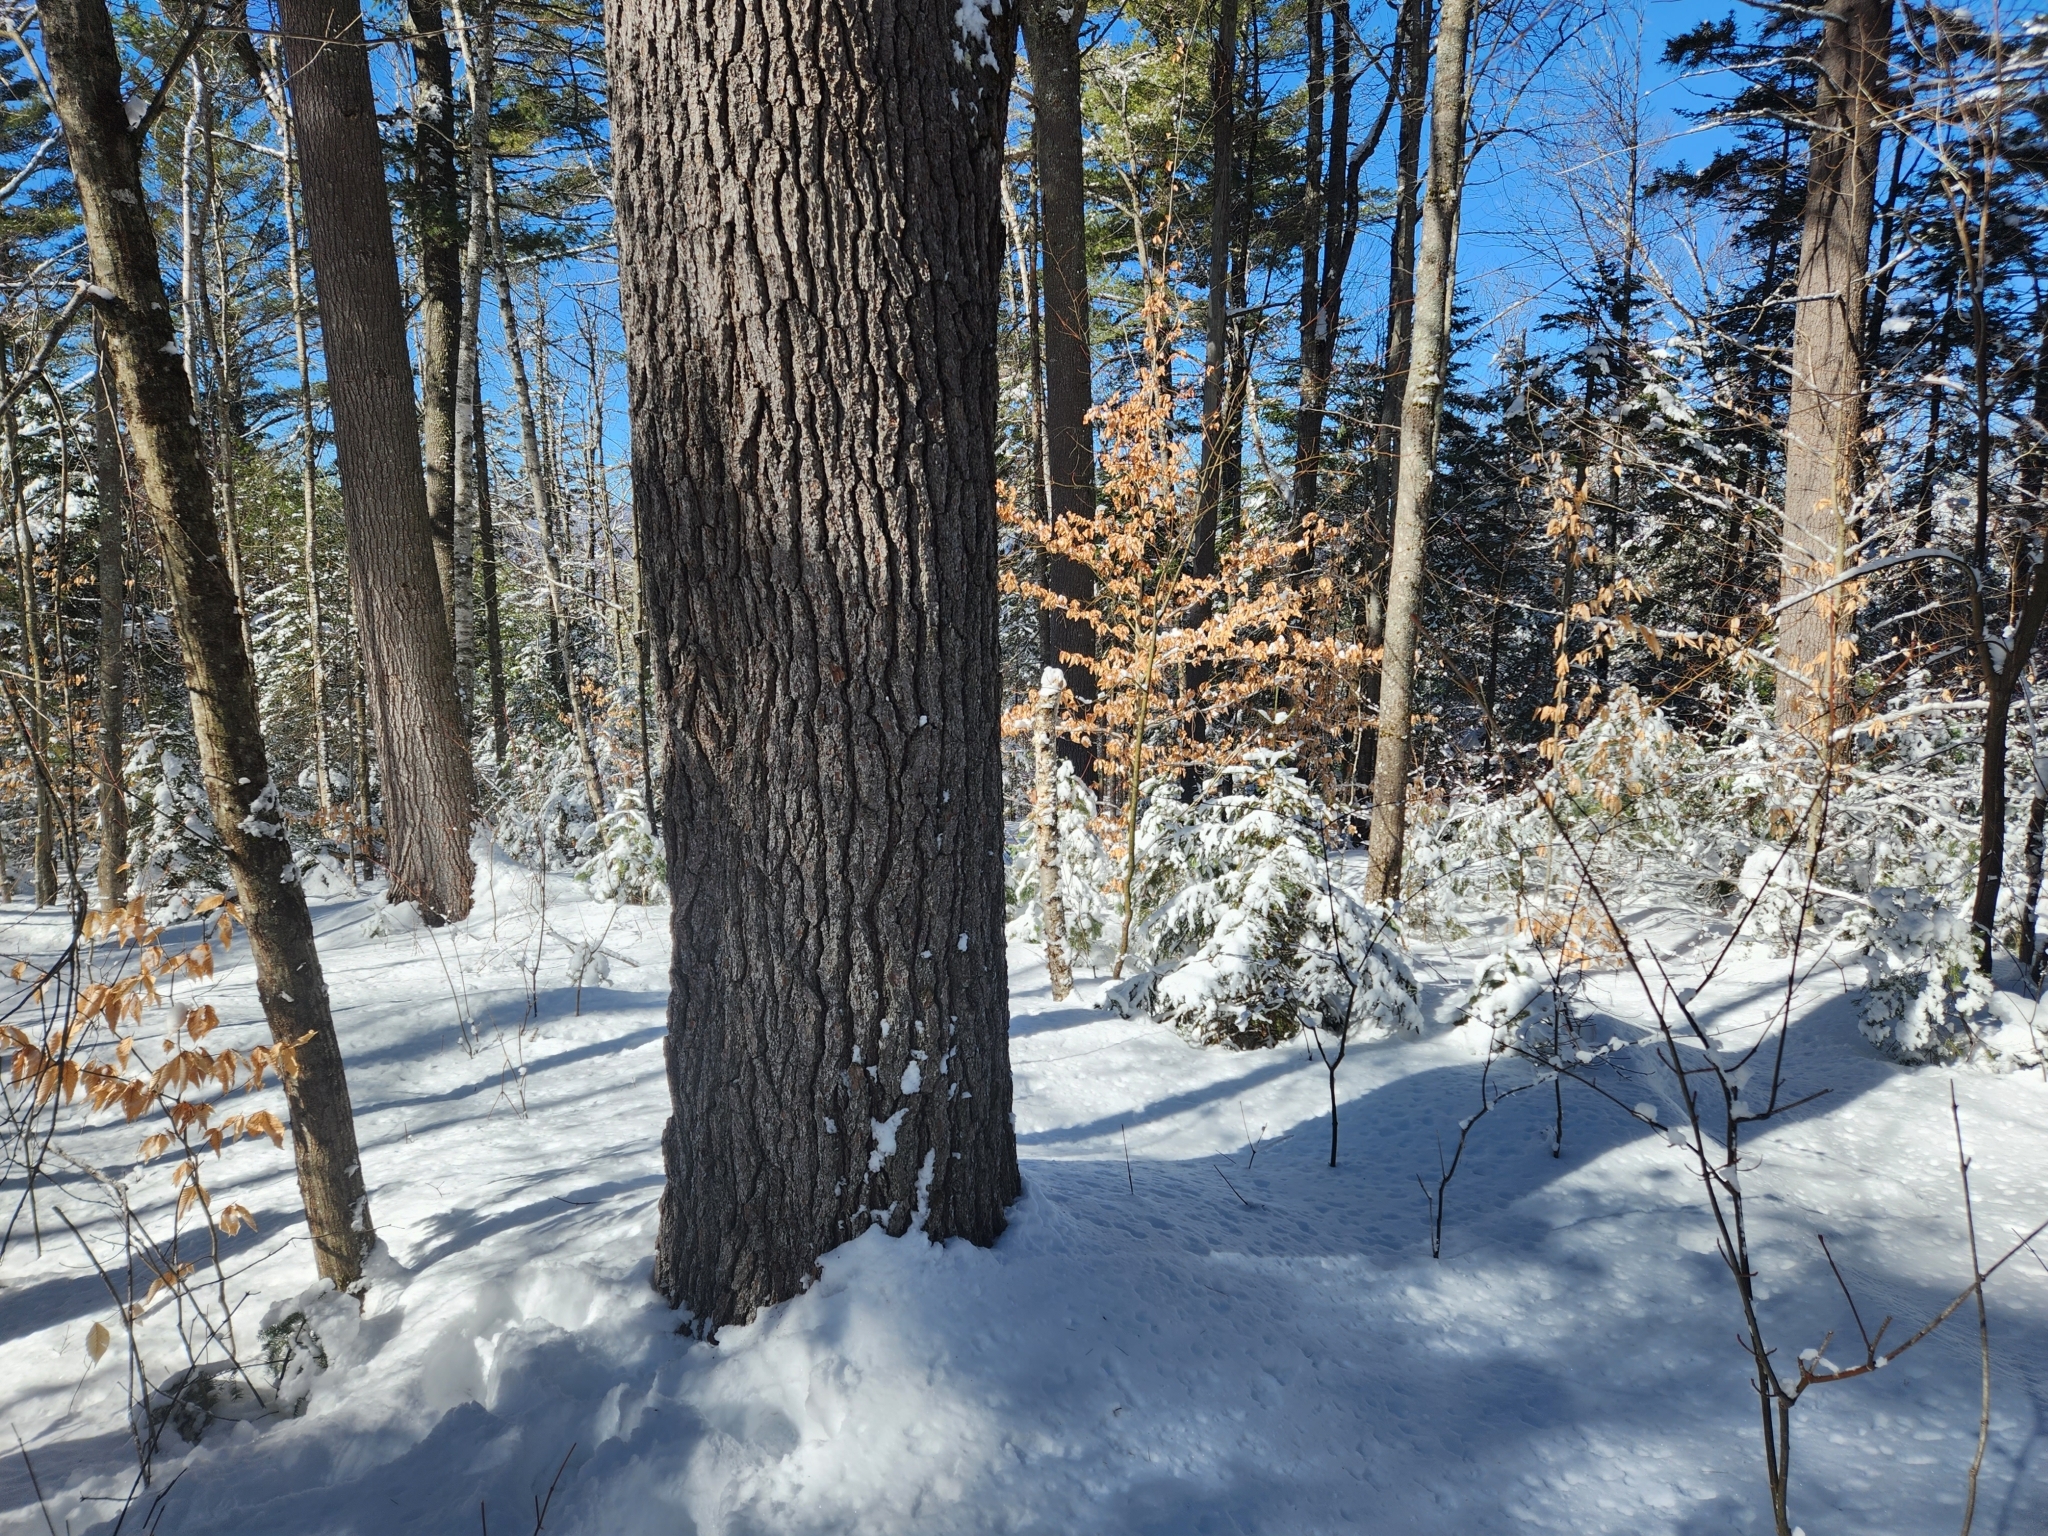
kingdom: Plantae
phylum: Tracheophyta
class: Pinopsida
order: Pinales
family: Pinaceae
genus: Pinus
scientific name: Pinus strobus
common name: Weymouth pine
